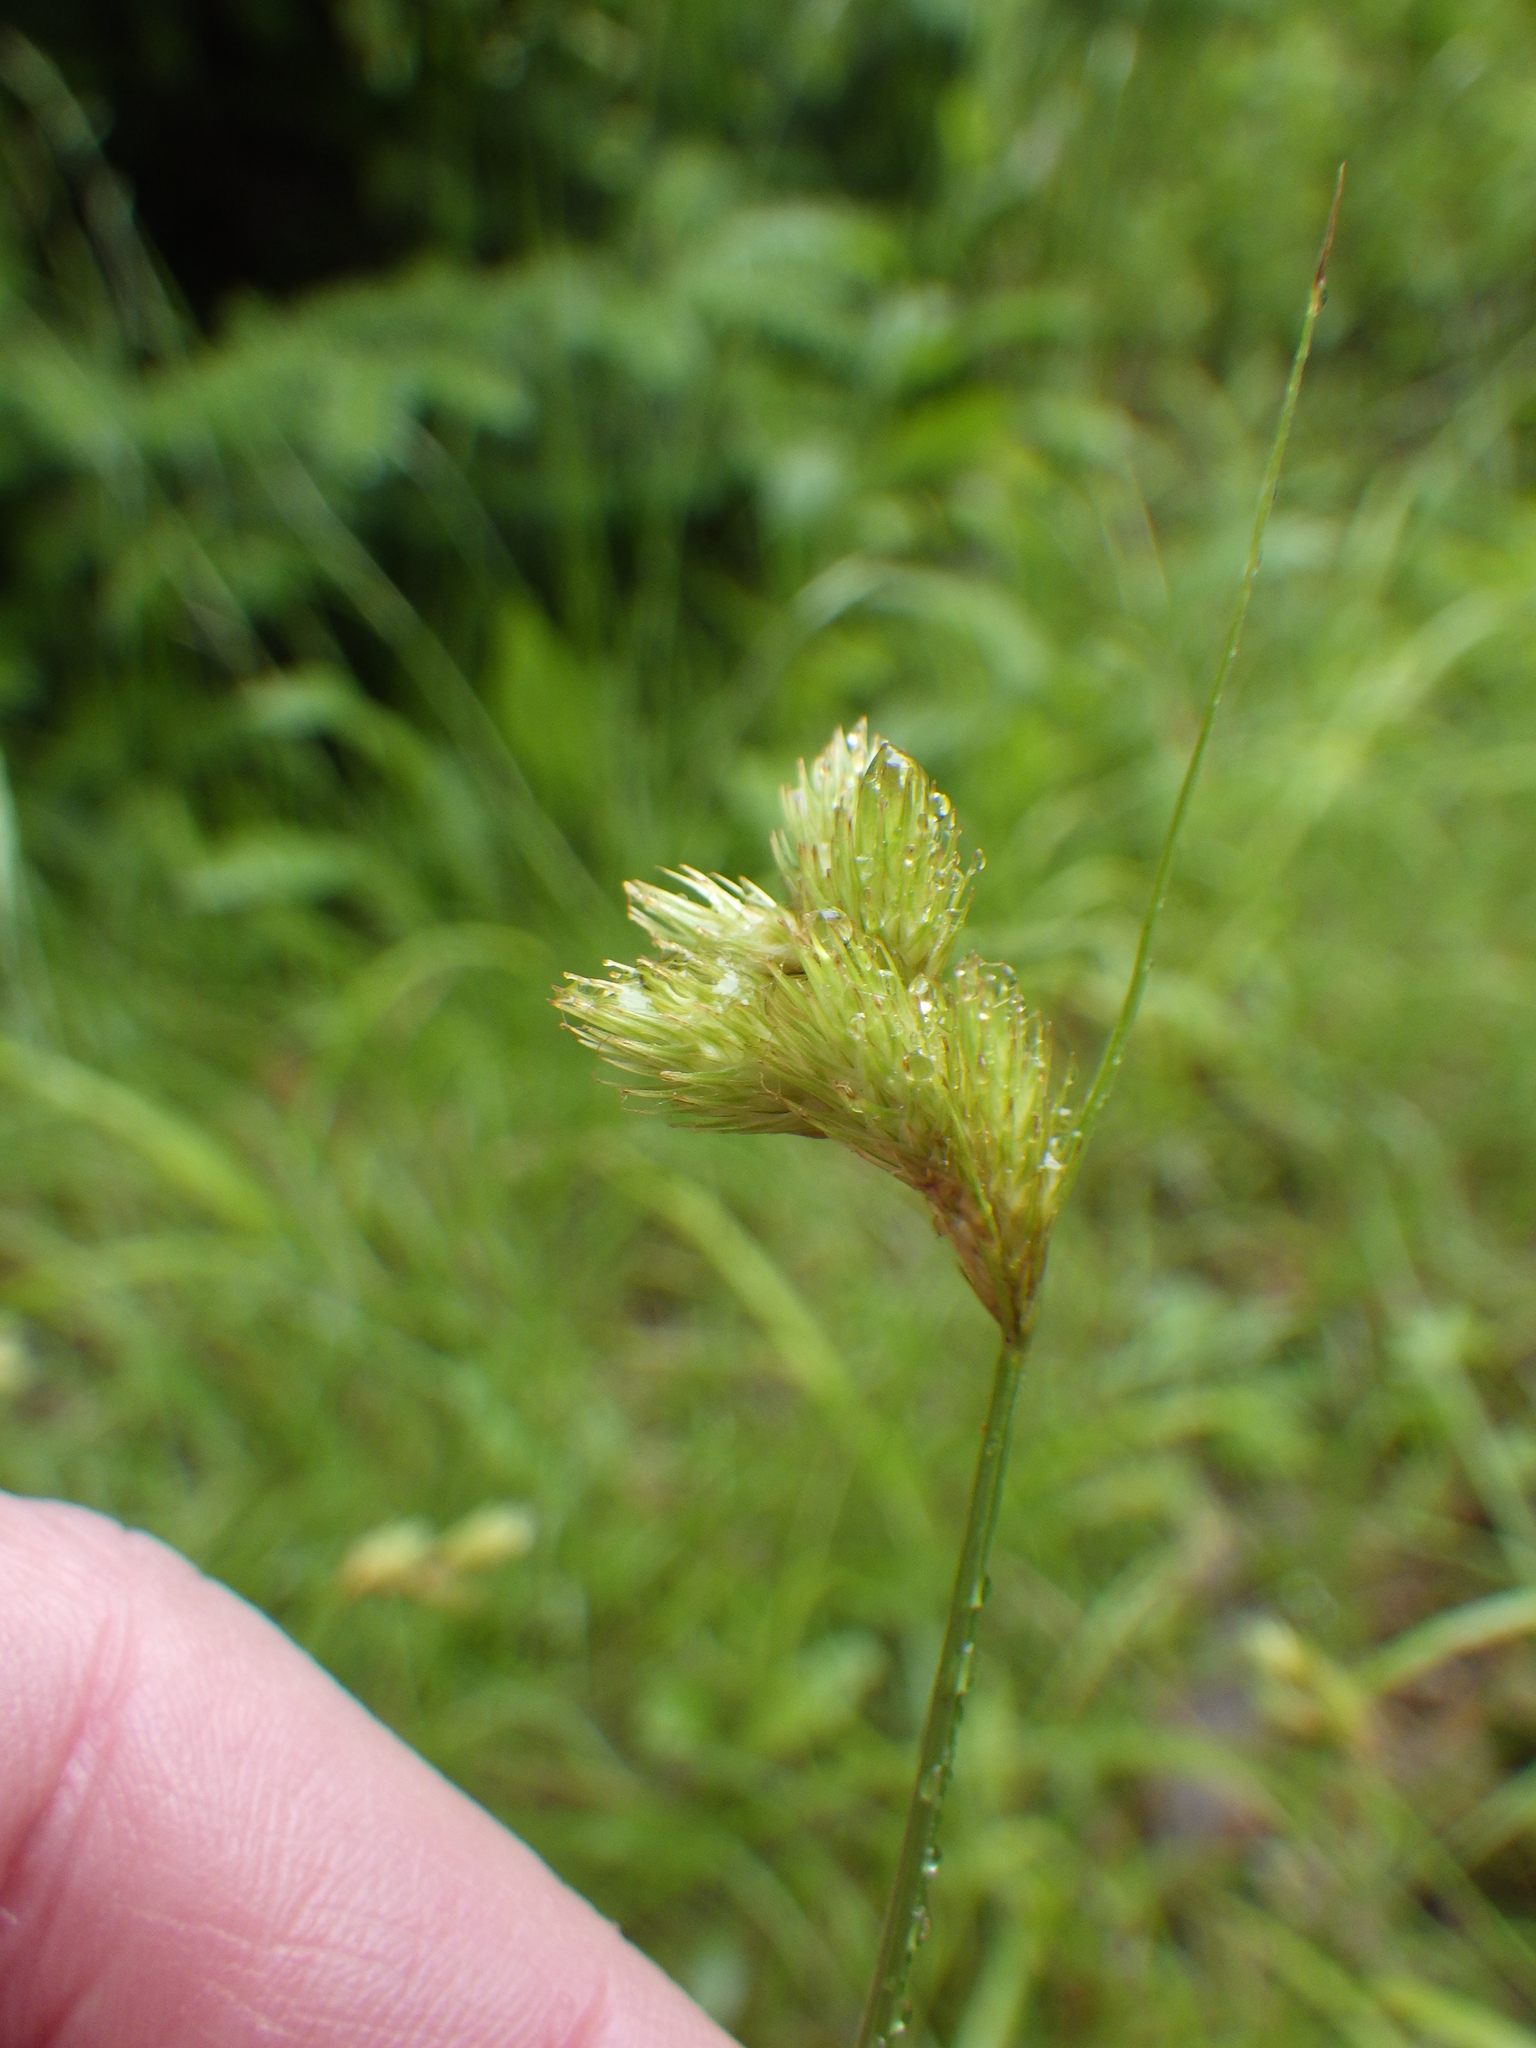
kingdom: Plantae
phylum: Tracheophyta
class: Liliopsida
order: Poales
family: Cyperaceae
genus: Carex
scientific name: Carex scoparia
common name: Broom sedge
